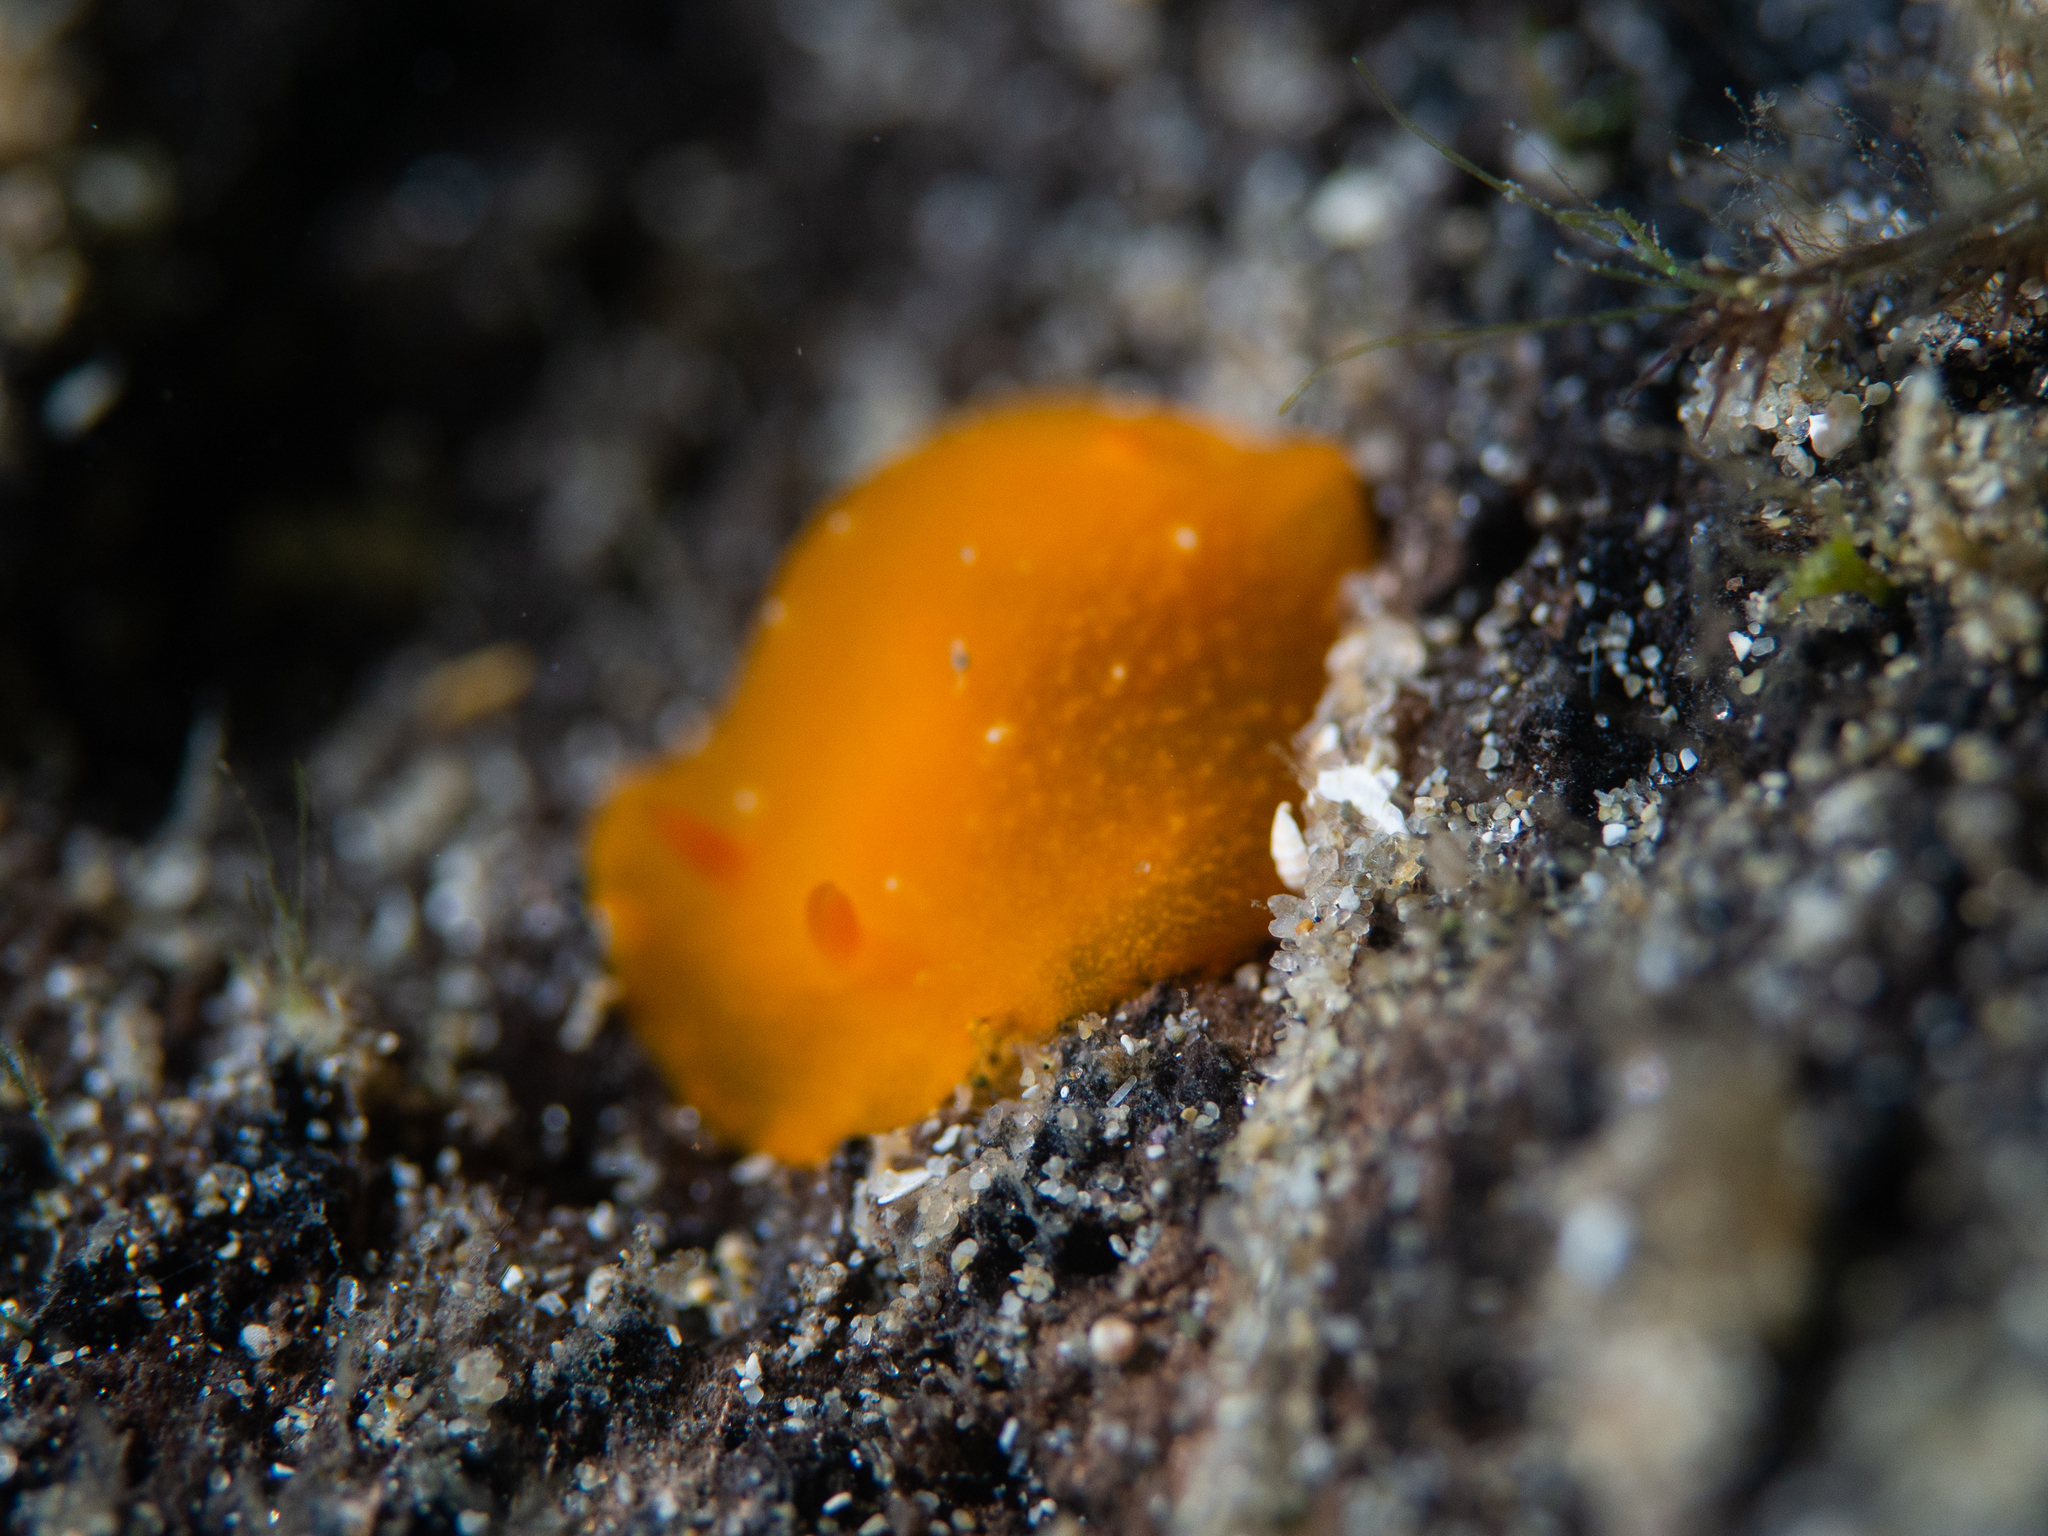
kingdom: Animalia
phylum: Mollusca
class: Gastropoda
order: Nudibranchia
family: Dendrodorididae
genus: Doriopsilla
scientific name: Doriopsilla carneola
